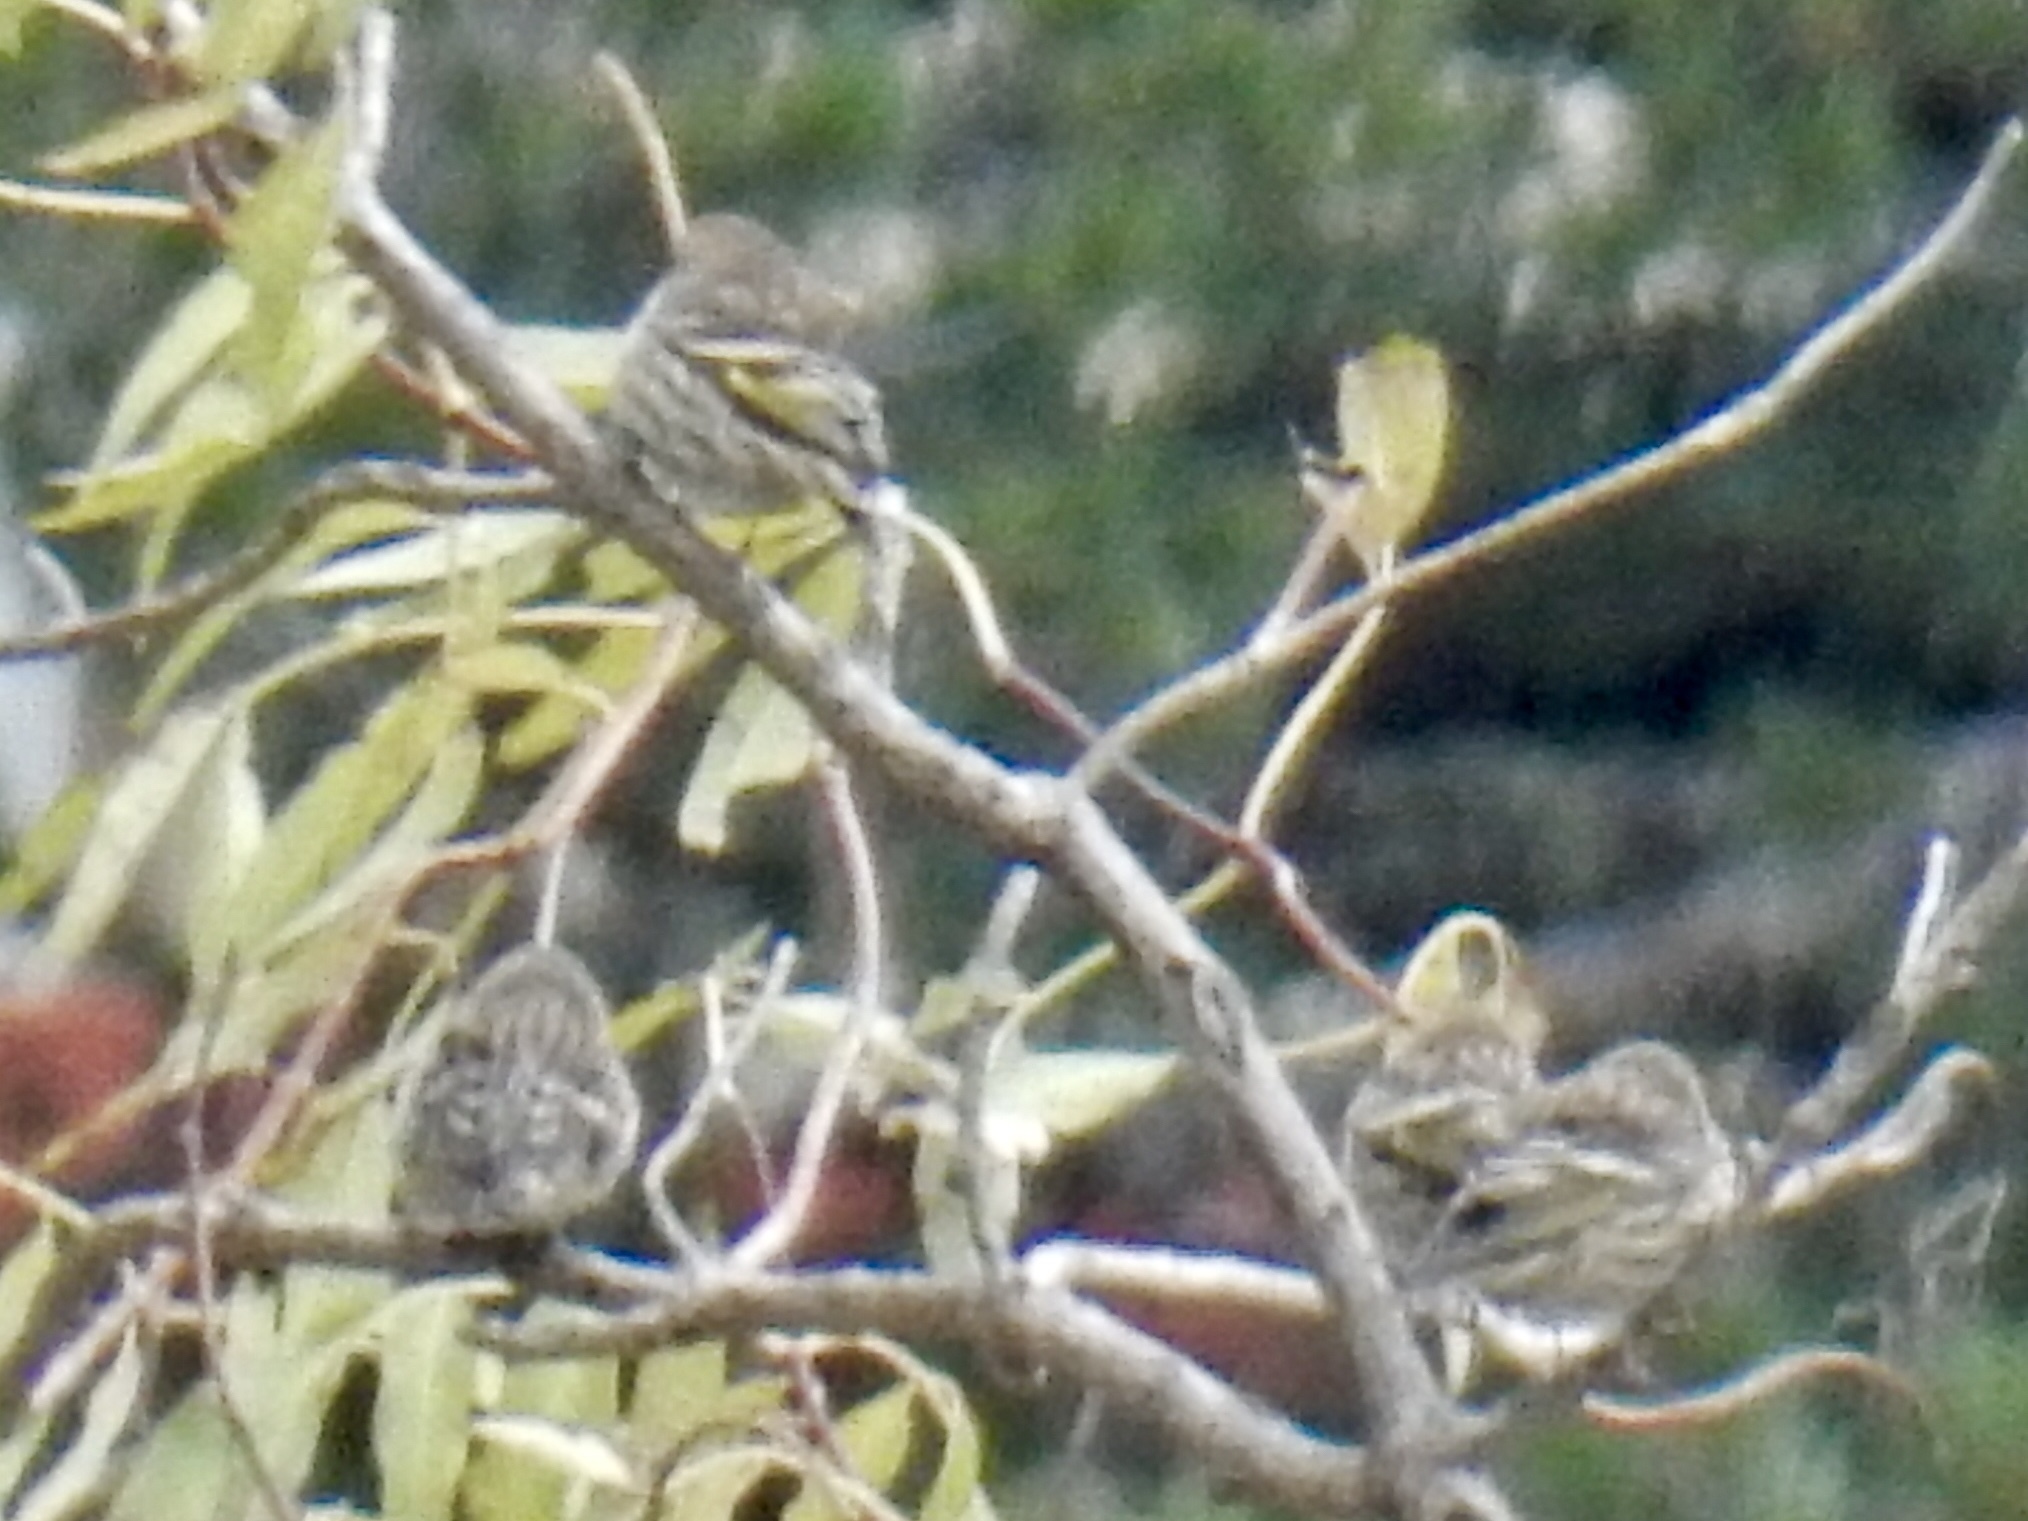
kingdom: Animalia
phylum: Chordata
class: Aves
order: Passeriformes
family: Fringillidae
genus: Spinus
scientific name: Spinus pinus
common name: Pine siskin
